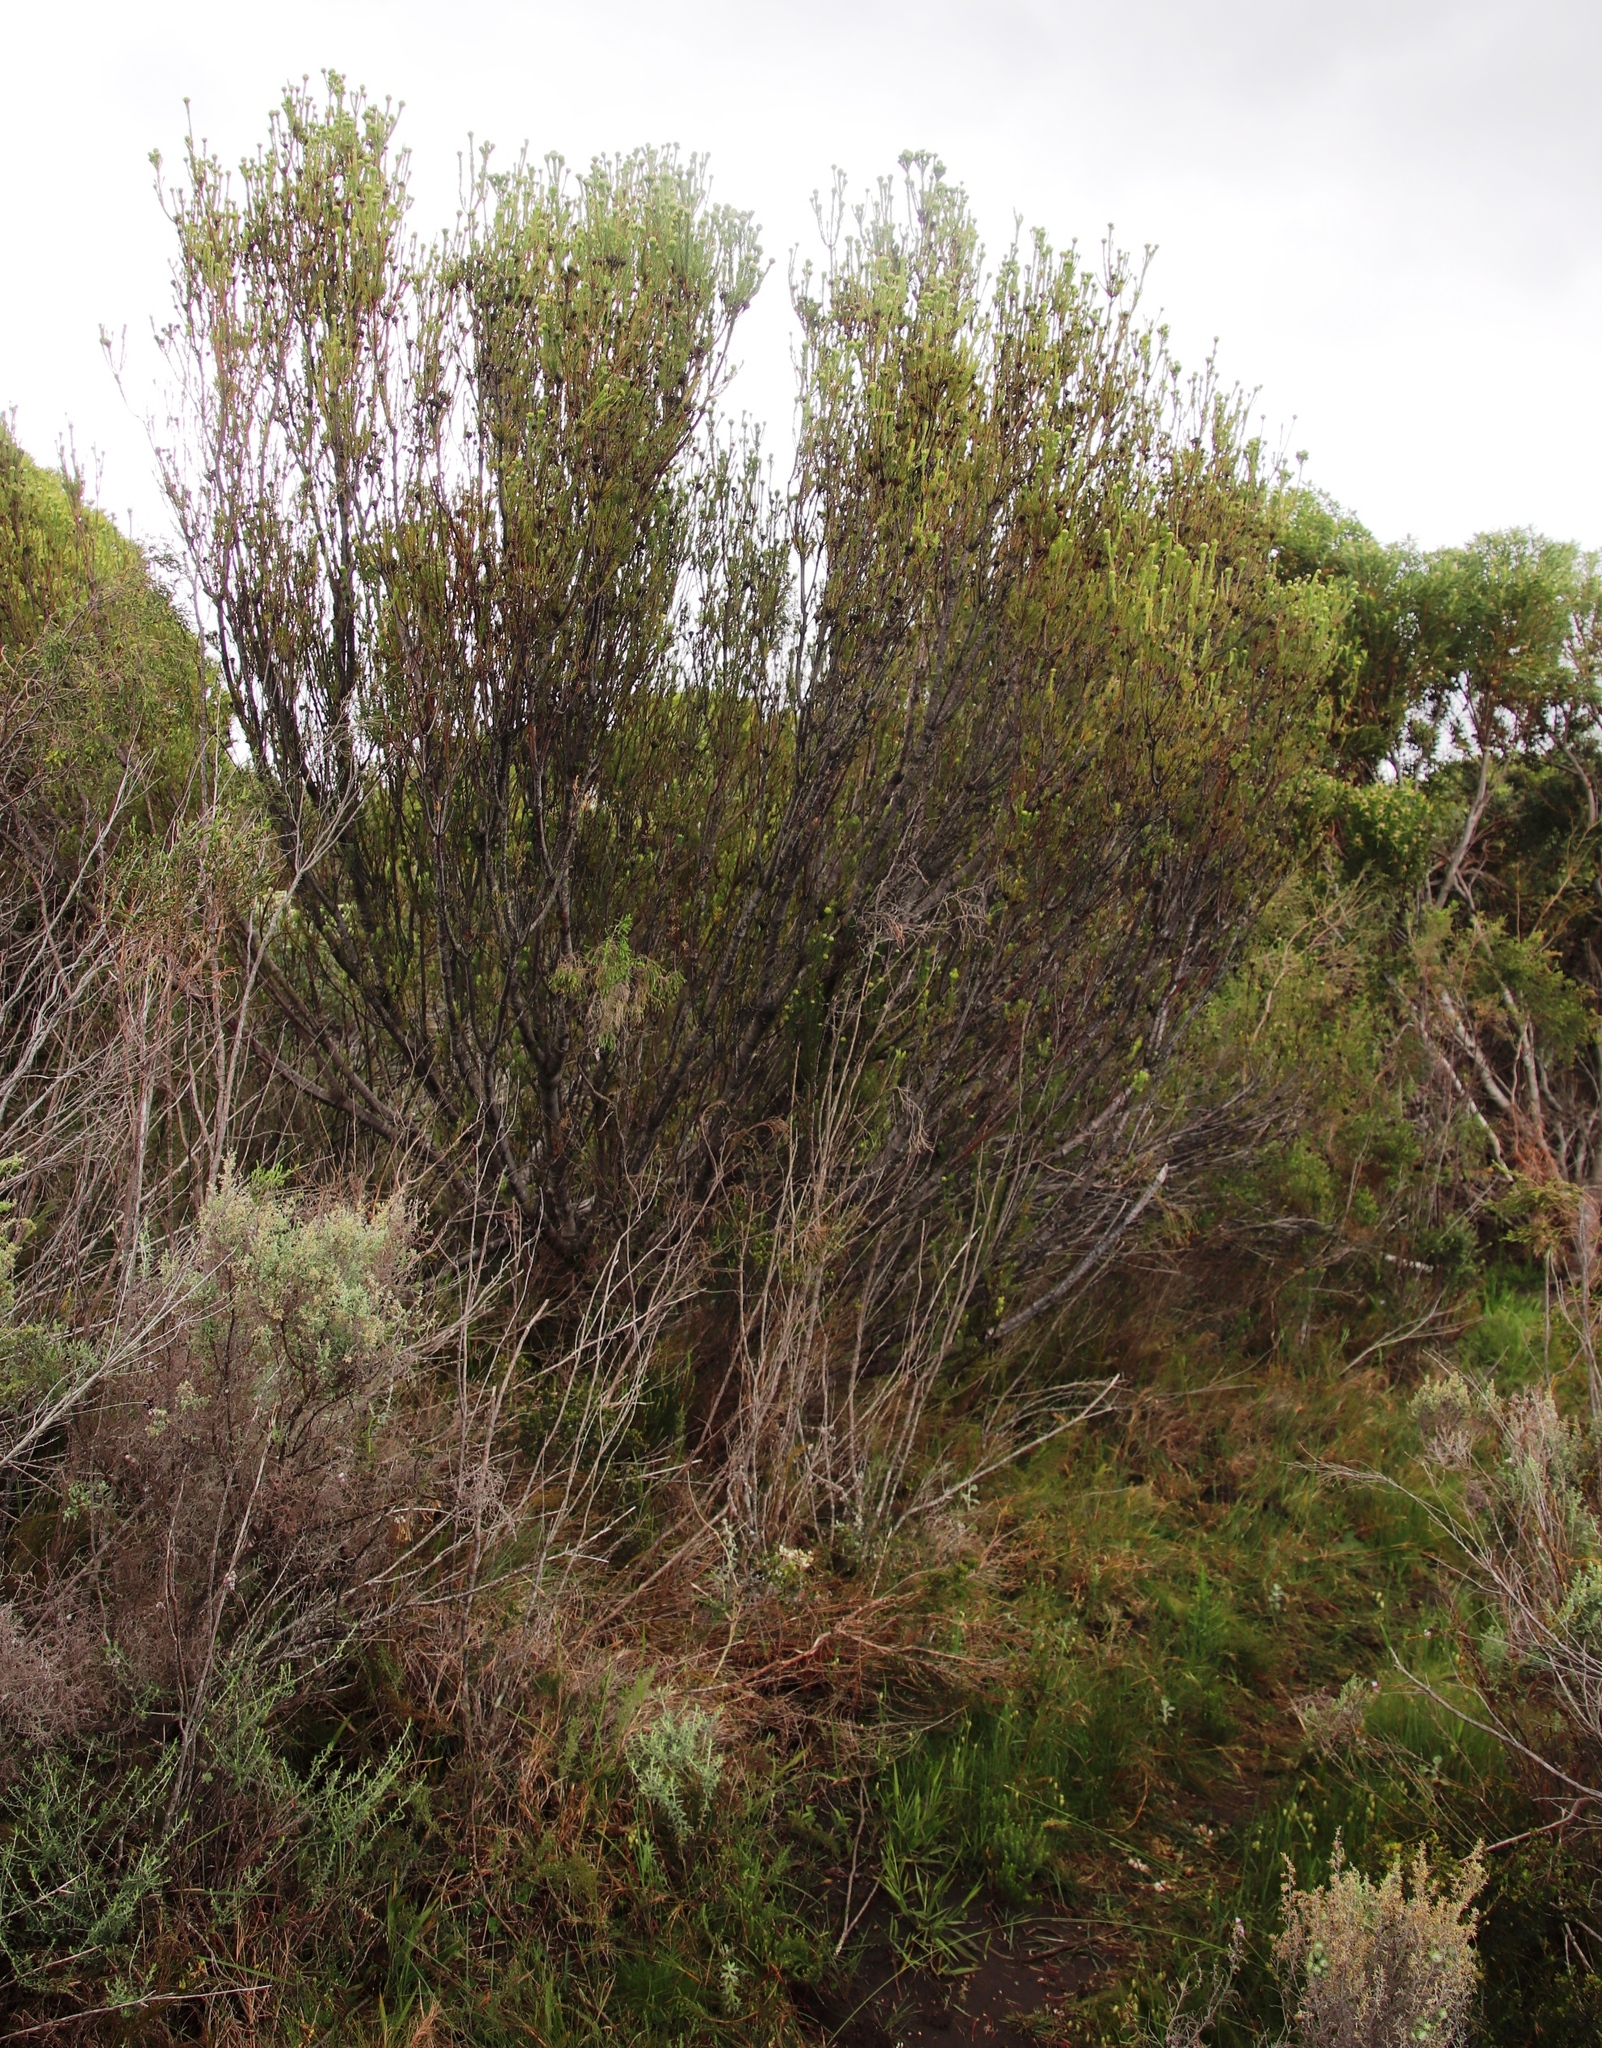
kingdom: Plantae
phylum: Tracheophyta
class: Magnoliopsida
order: Proteales
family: Proteaceae
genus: Leucadendron
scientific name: Leucadendron
